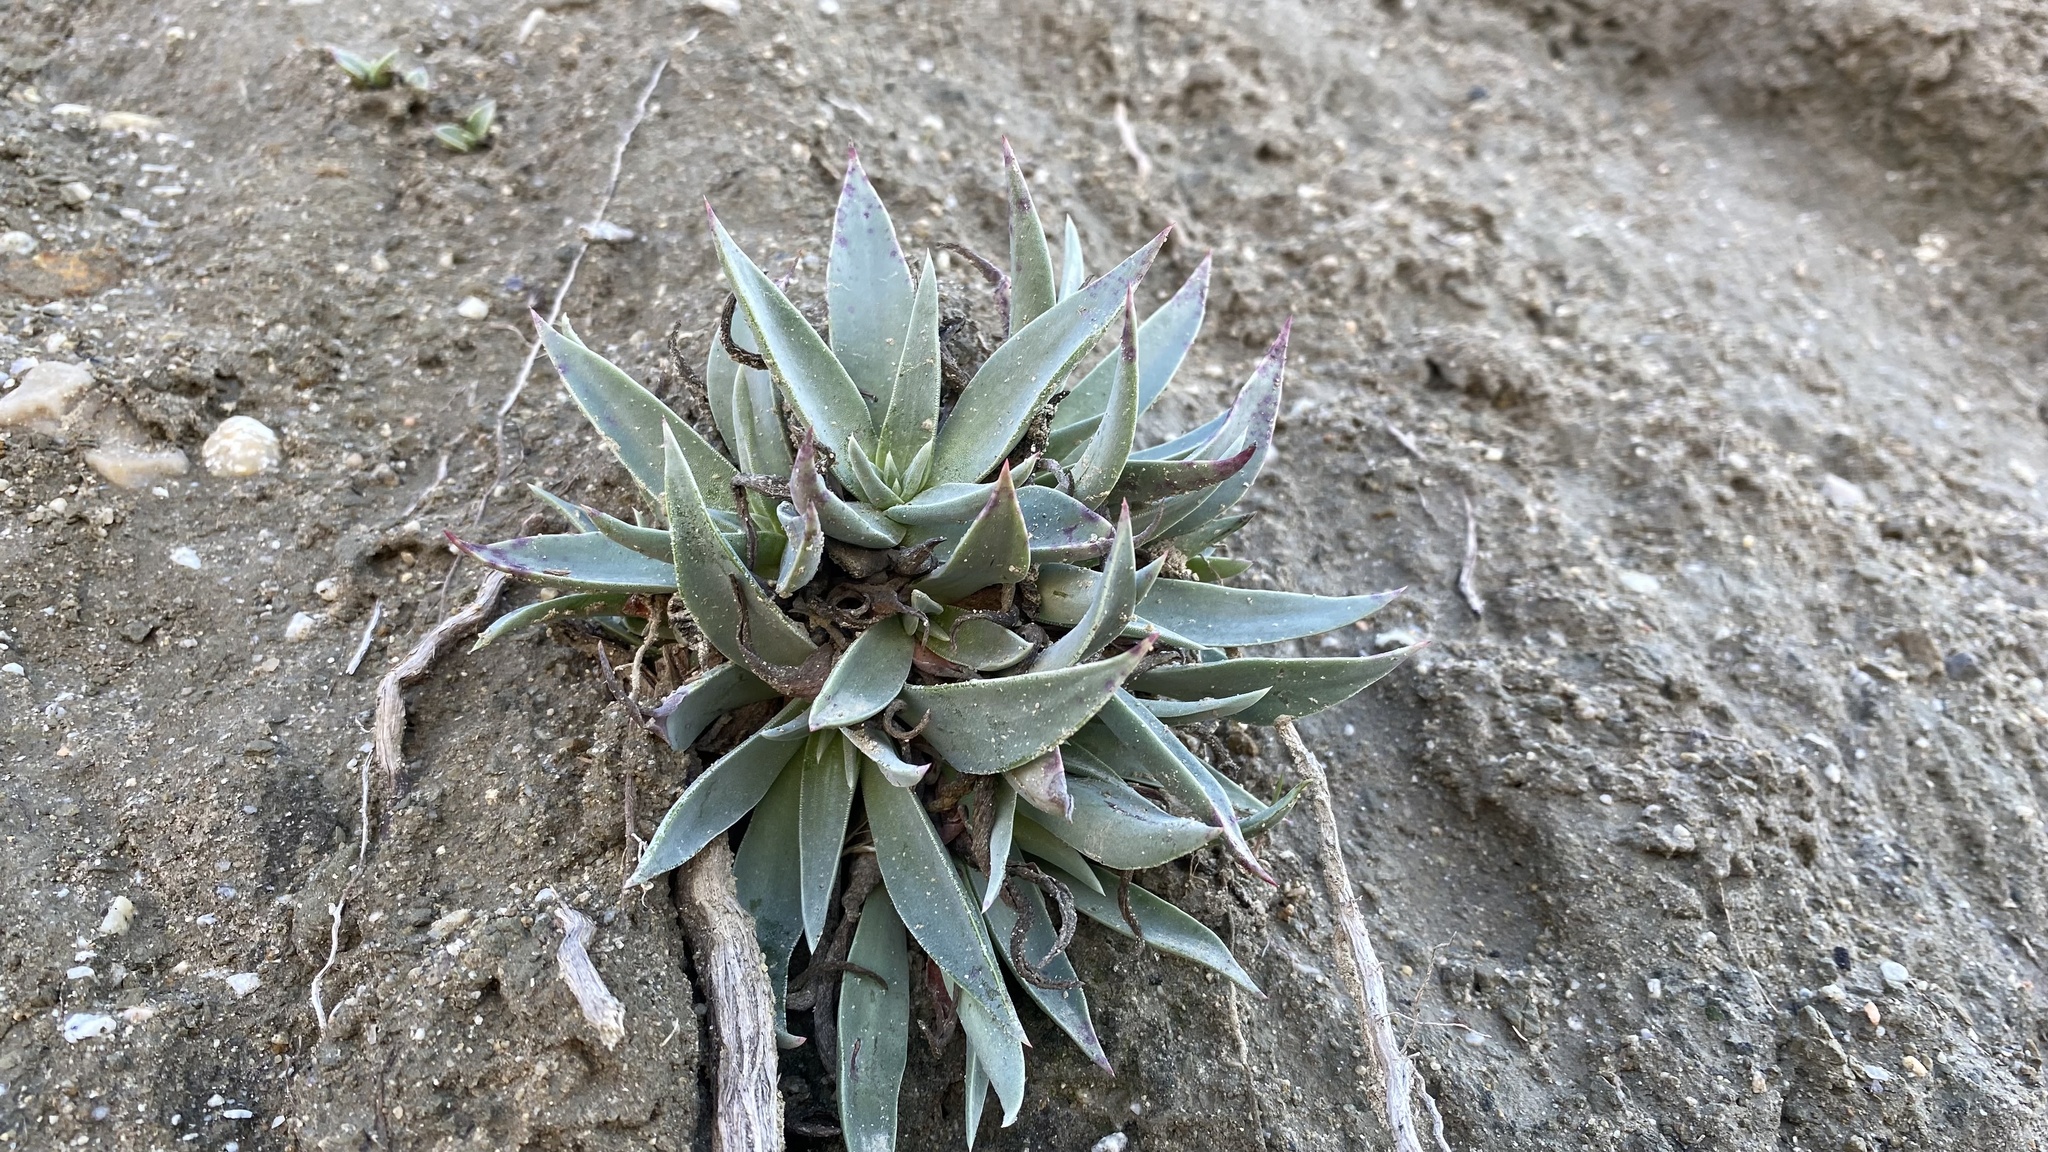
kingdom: Plantae
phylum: Tracheophyta
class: Magnoliopsida
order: Saxifragales
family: Crassulaceae
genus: Dudleya
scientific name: Dudleya lanceolata
